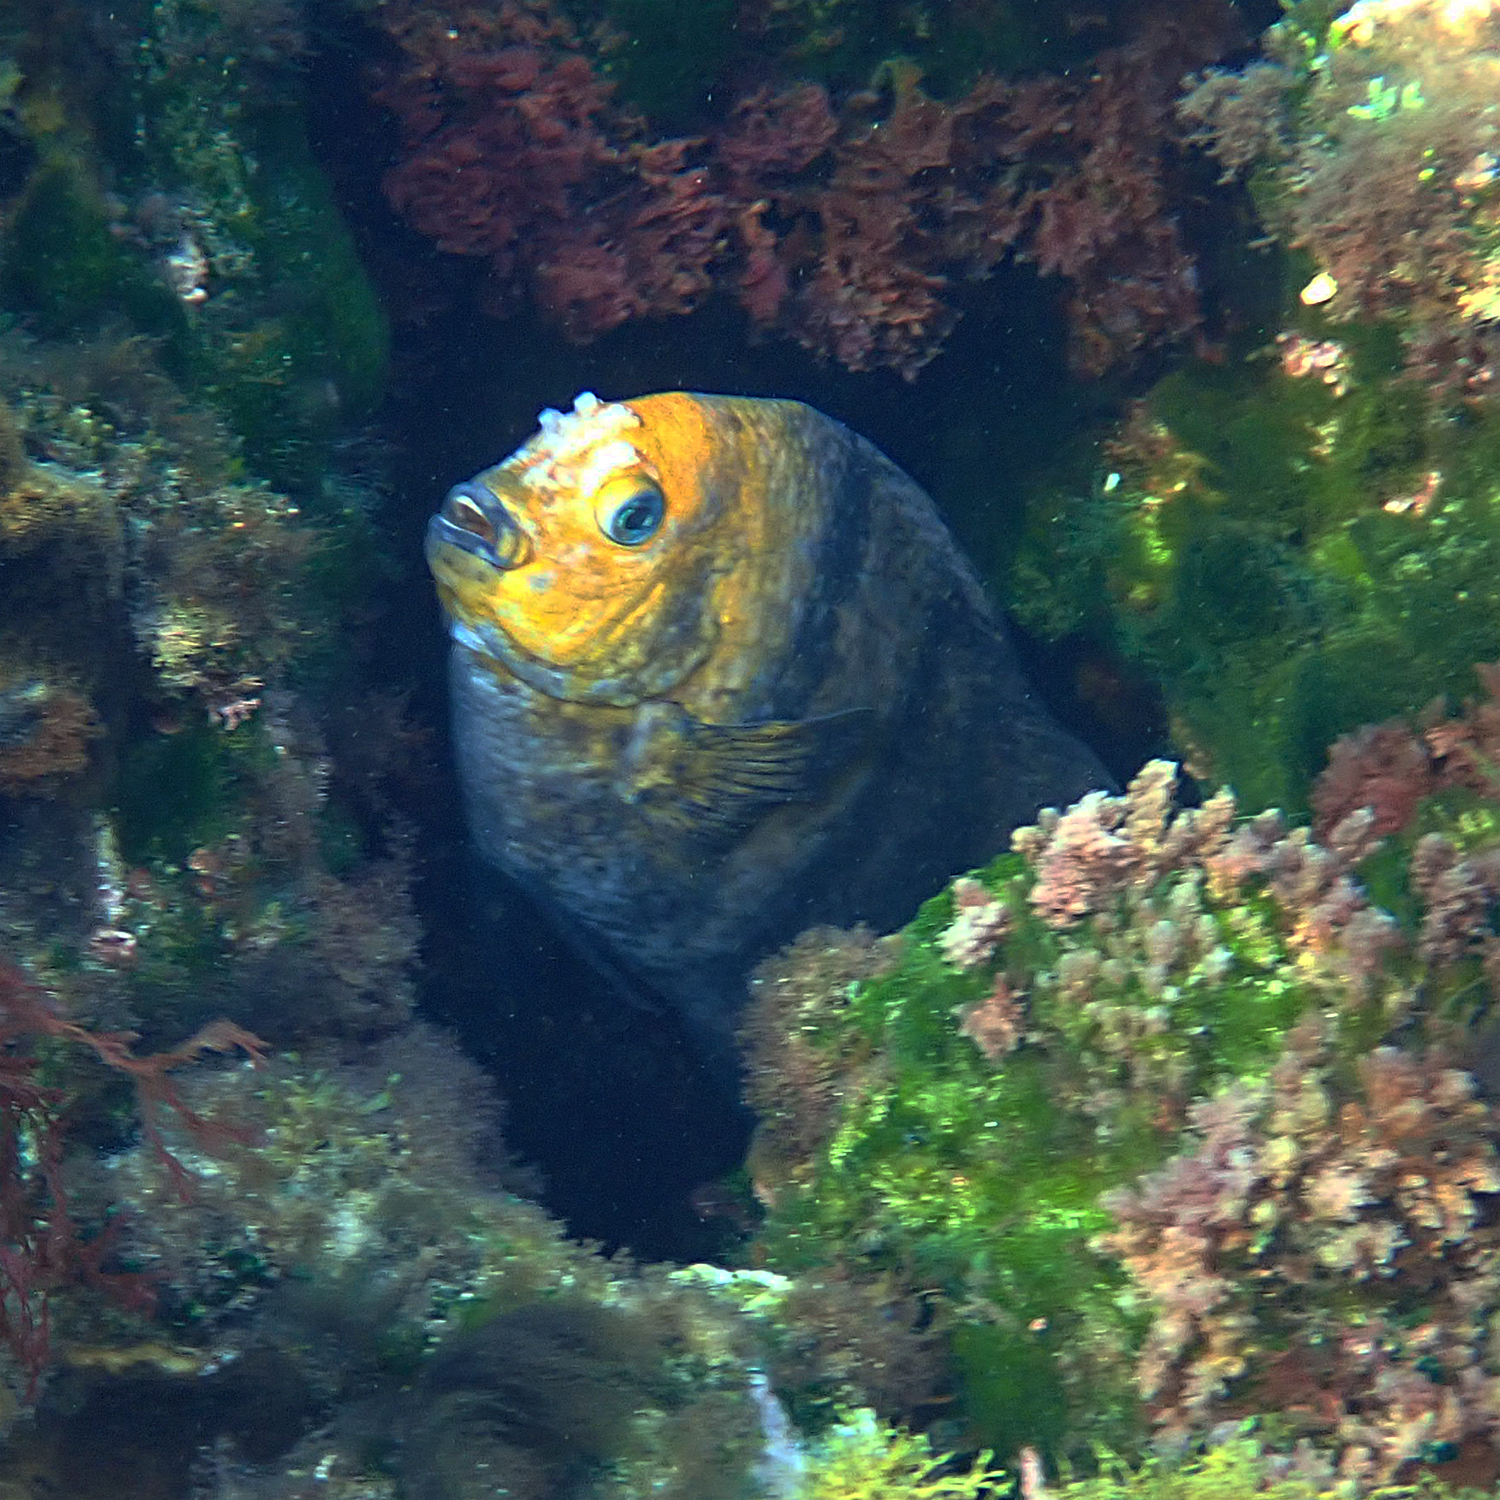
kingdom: Animalia
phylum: Chordata
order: Perciformes
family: Pomacentridae
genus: Parma
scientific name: Parma polylepis
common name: Banded parma
